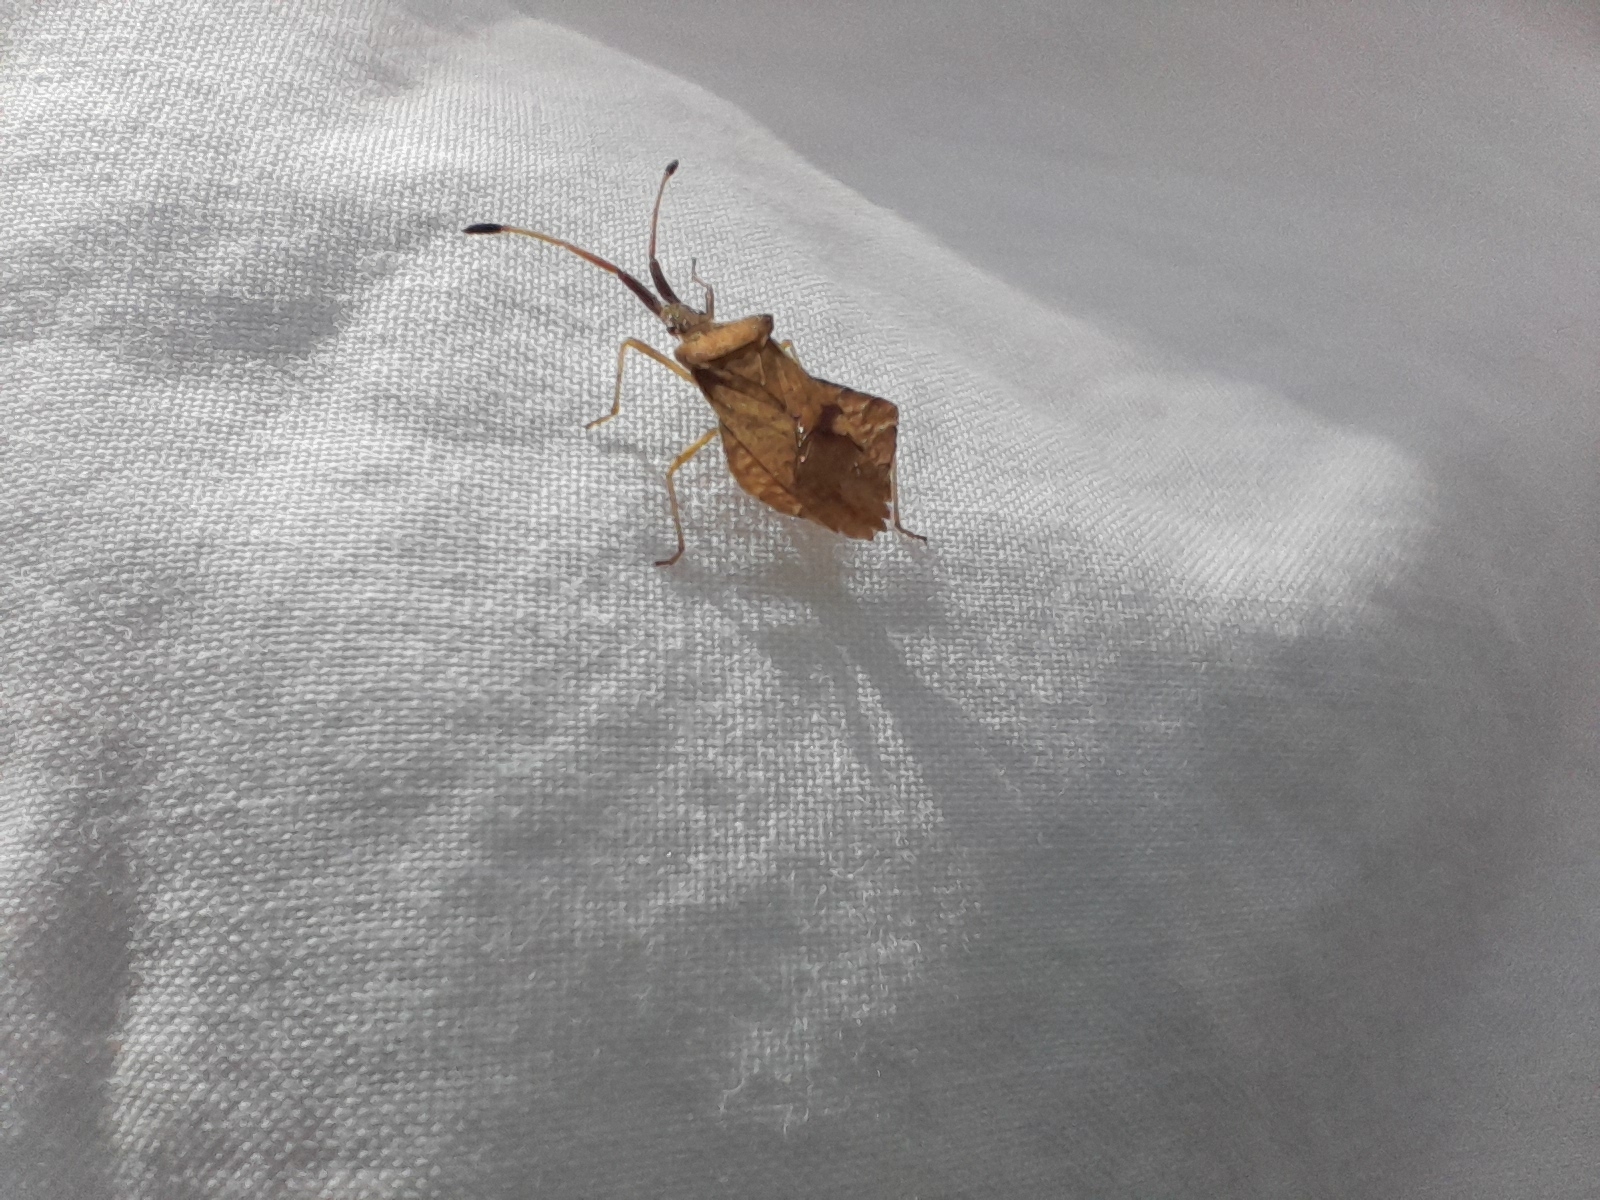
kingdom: Animalia
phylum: Arthropoda
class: Insecta
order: Hemiptera
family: Coreidae
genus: Syromastus
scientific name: Syromastus rhombeus
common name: Rhombic leatherbug
